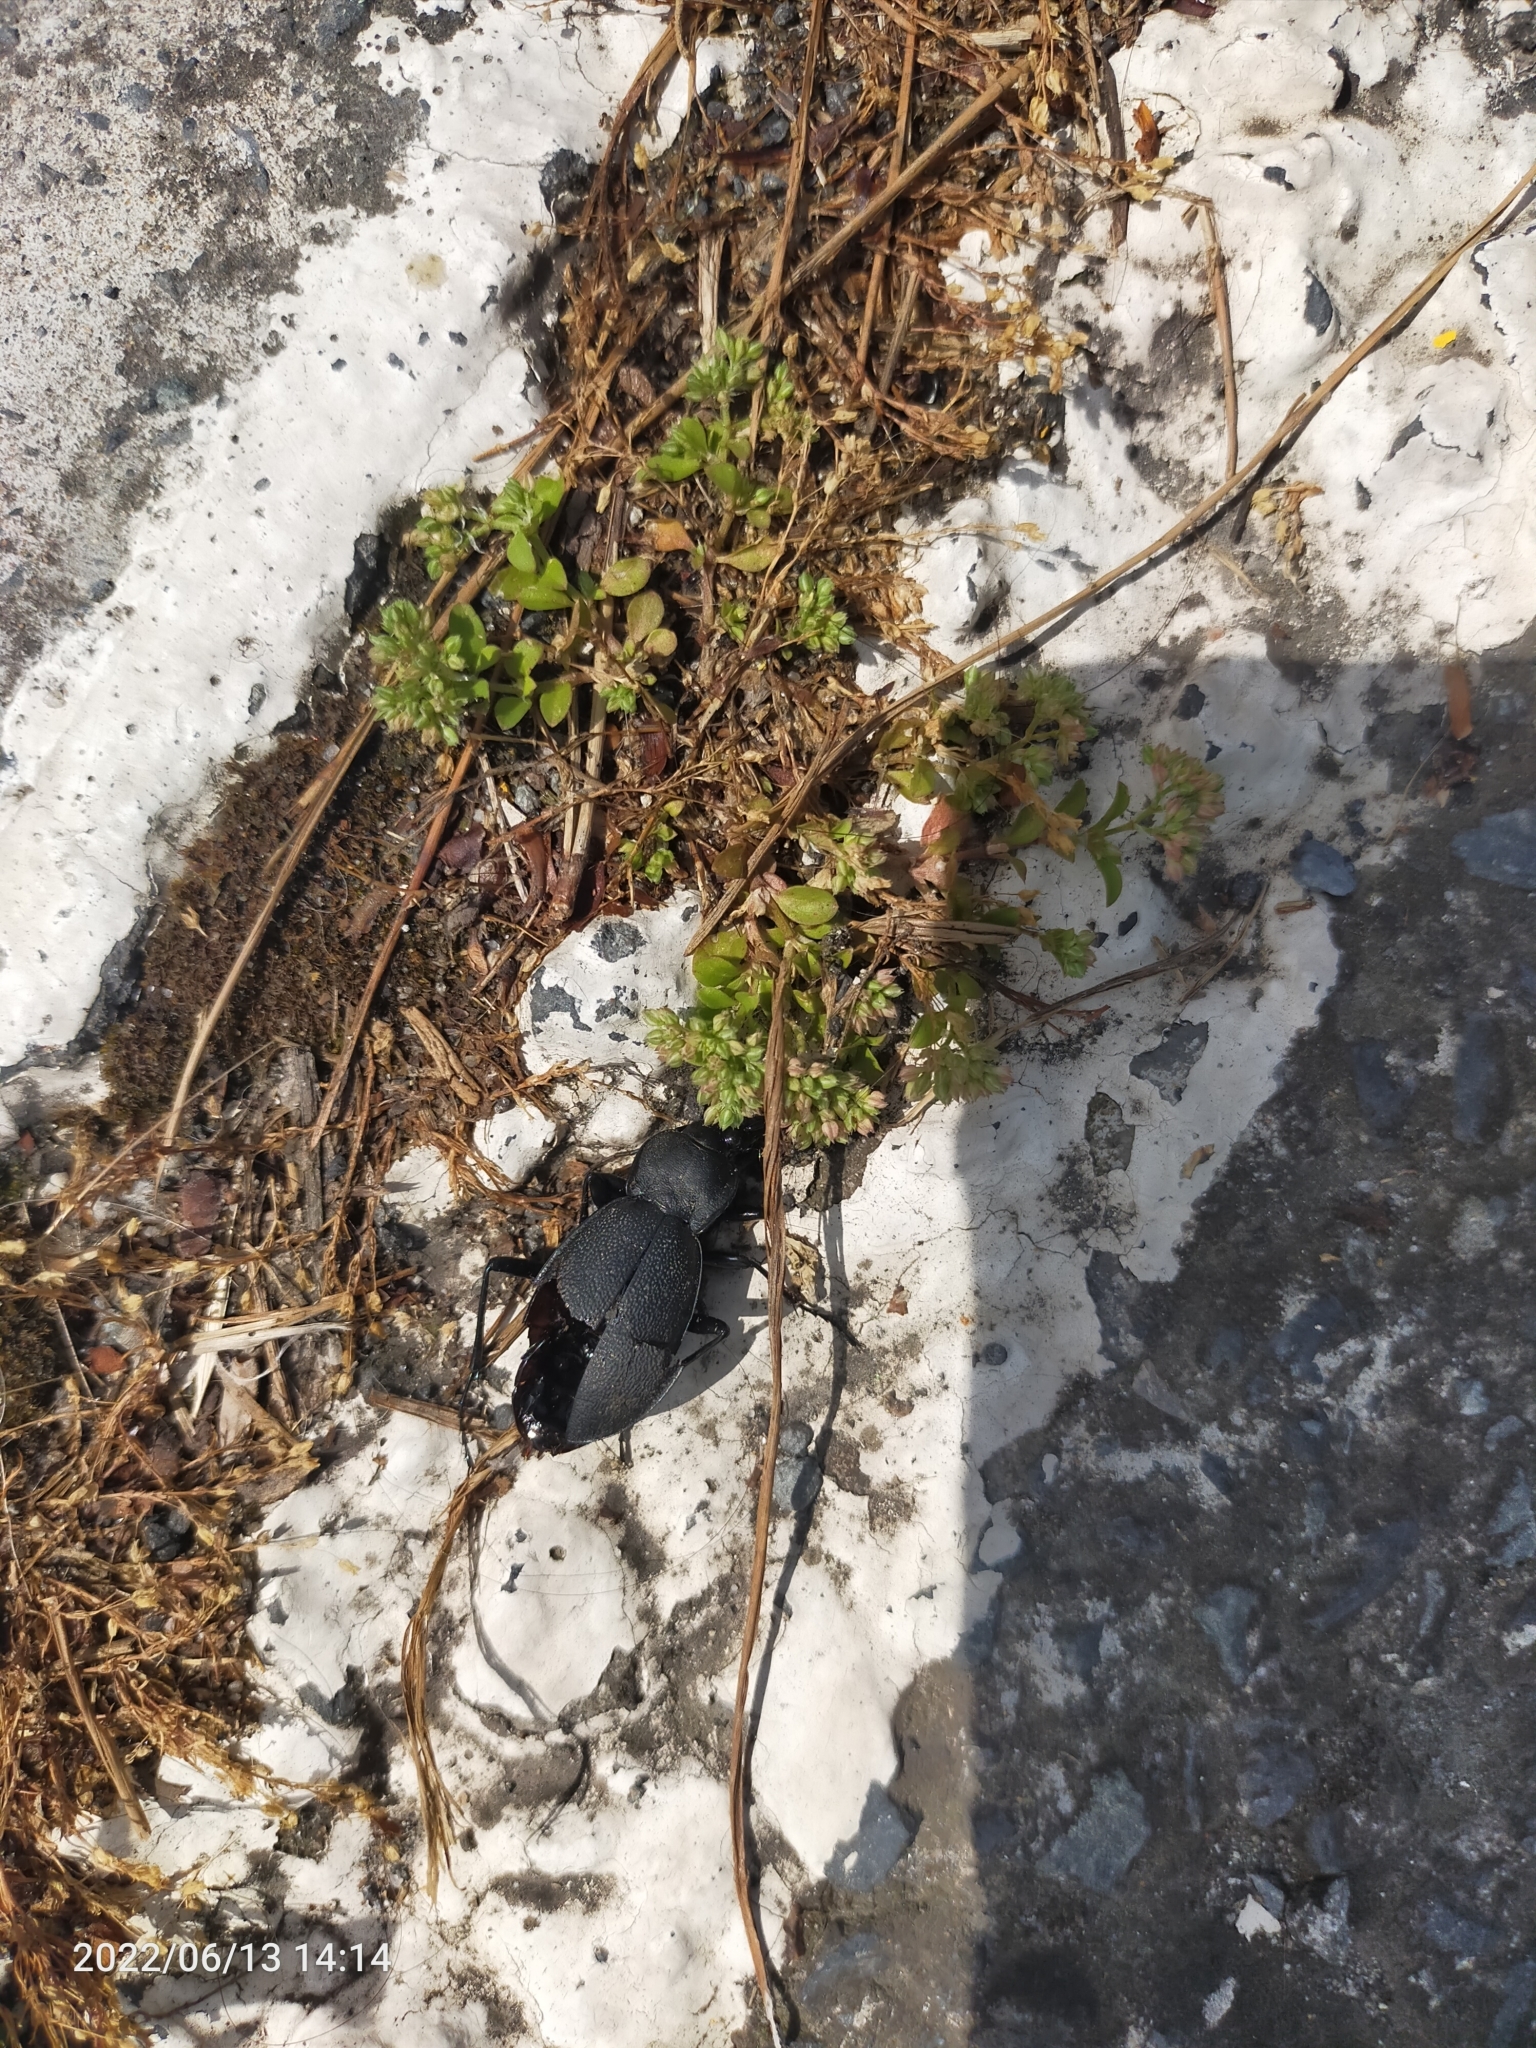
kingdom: Animalia
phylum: Arthropoda
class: Insecta
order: Coleoptera
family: Carabidae
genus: Carabus
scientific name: Carabus coriaceus
